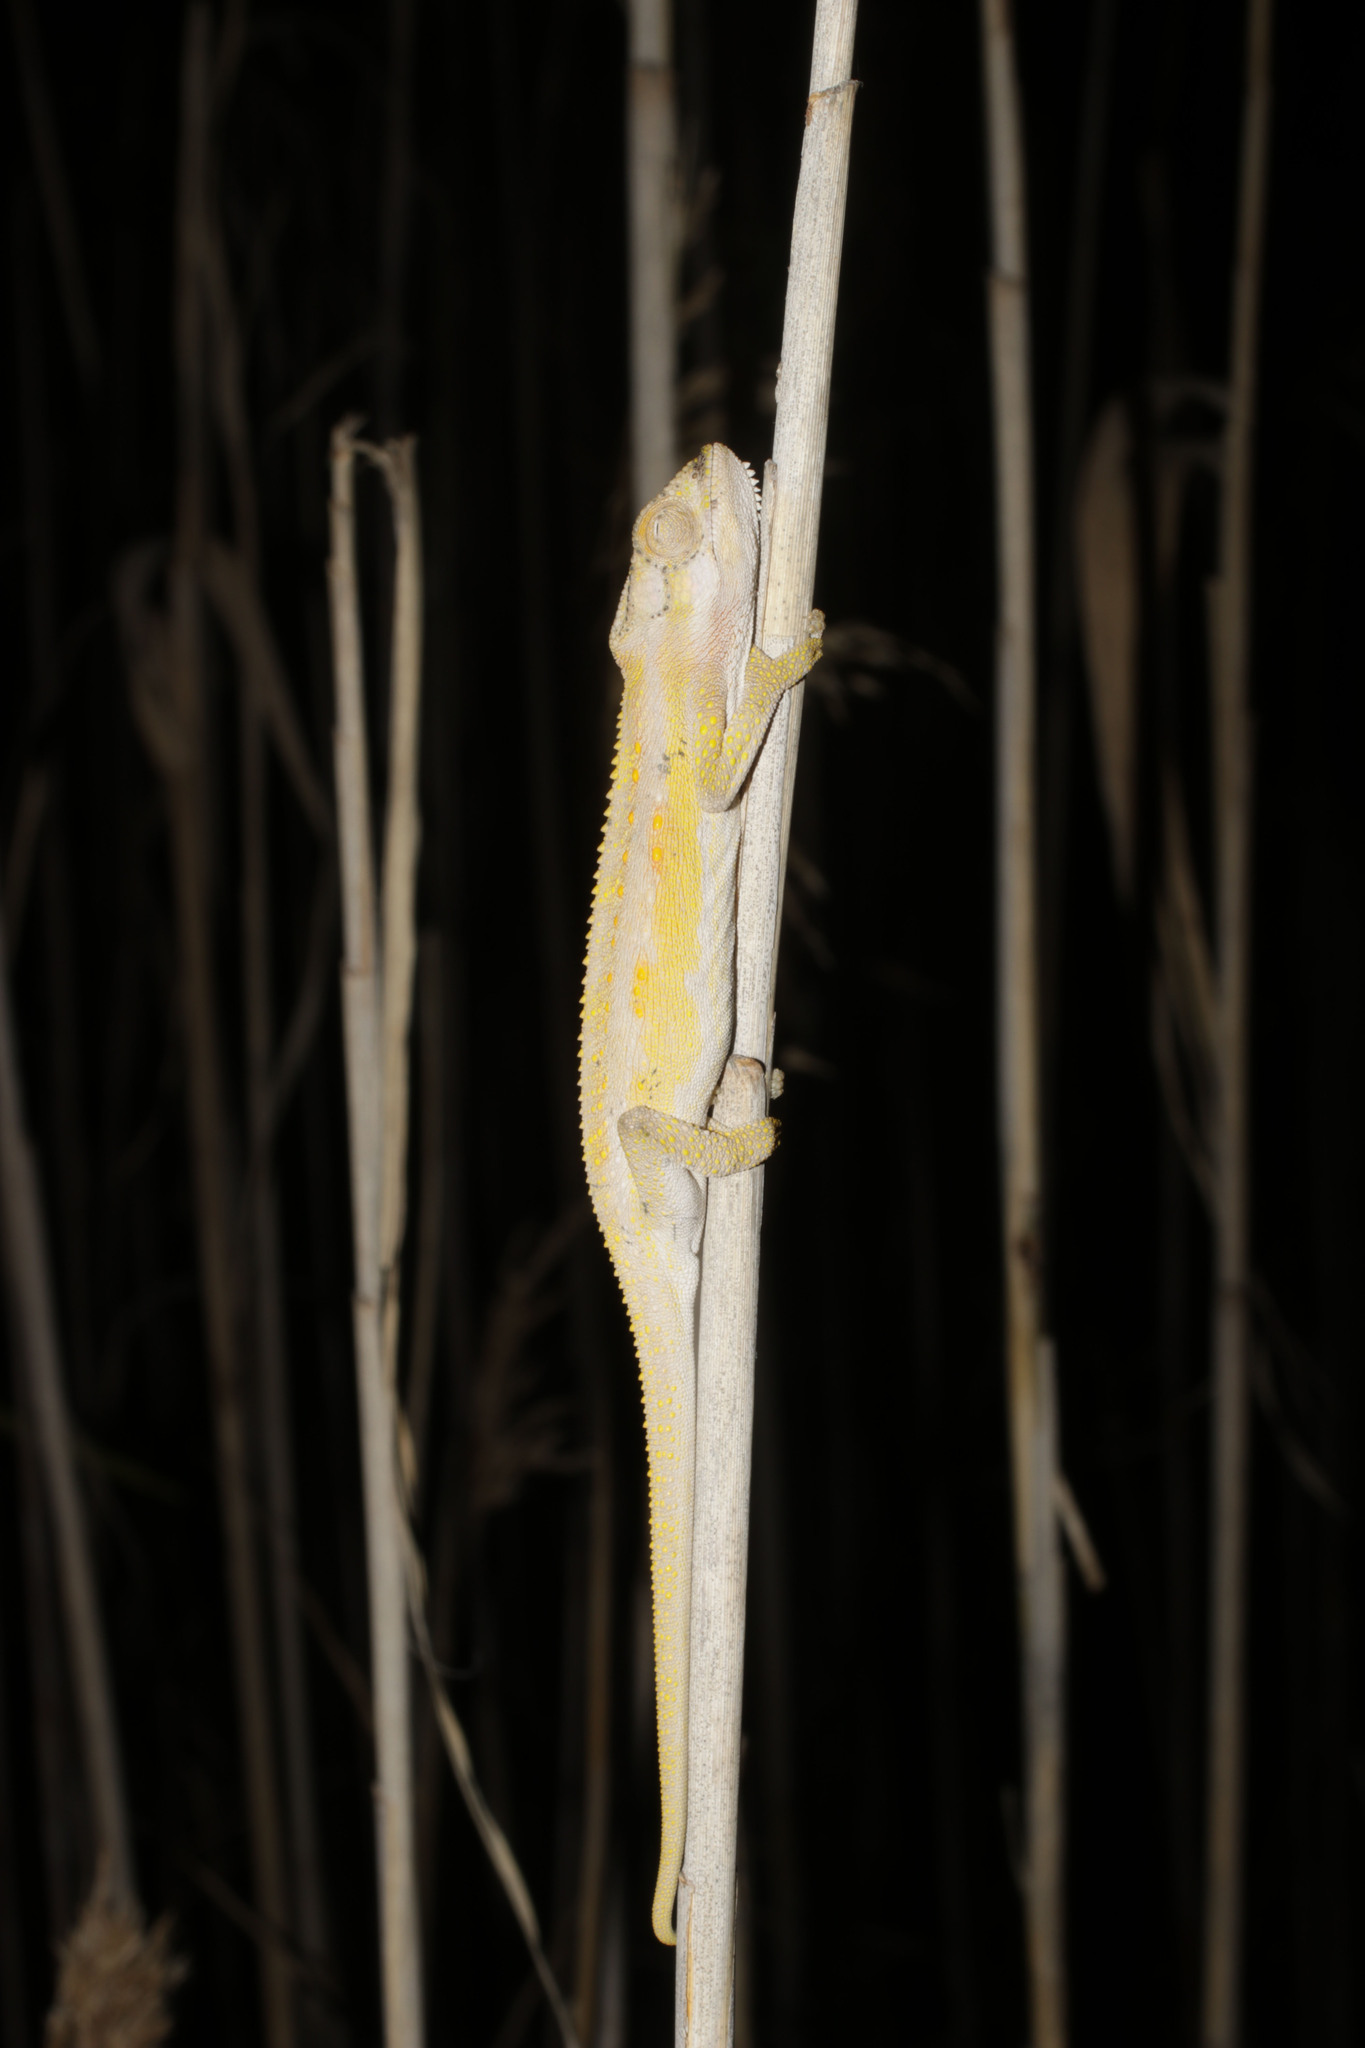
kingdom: Animalia
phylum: Chordata
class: Squamata
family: Chamaeleonidae
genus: Bradypodion
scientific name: Bradypodion pumilum
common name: Cape dwarf chameleon
